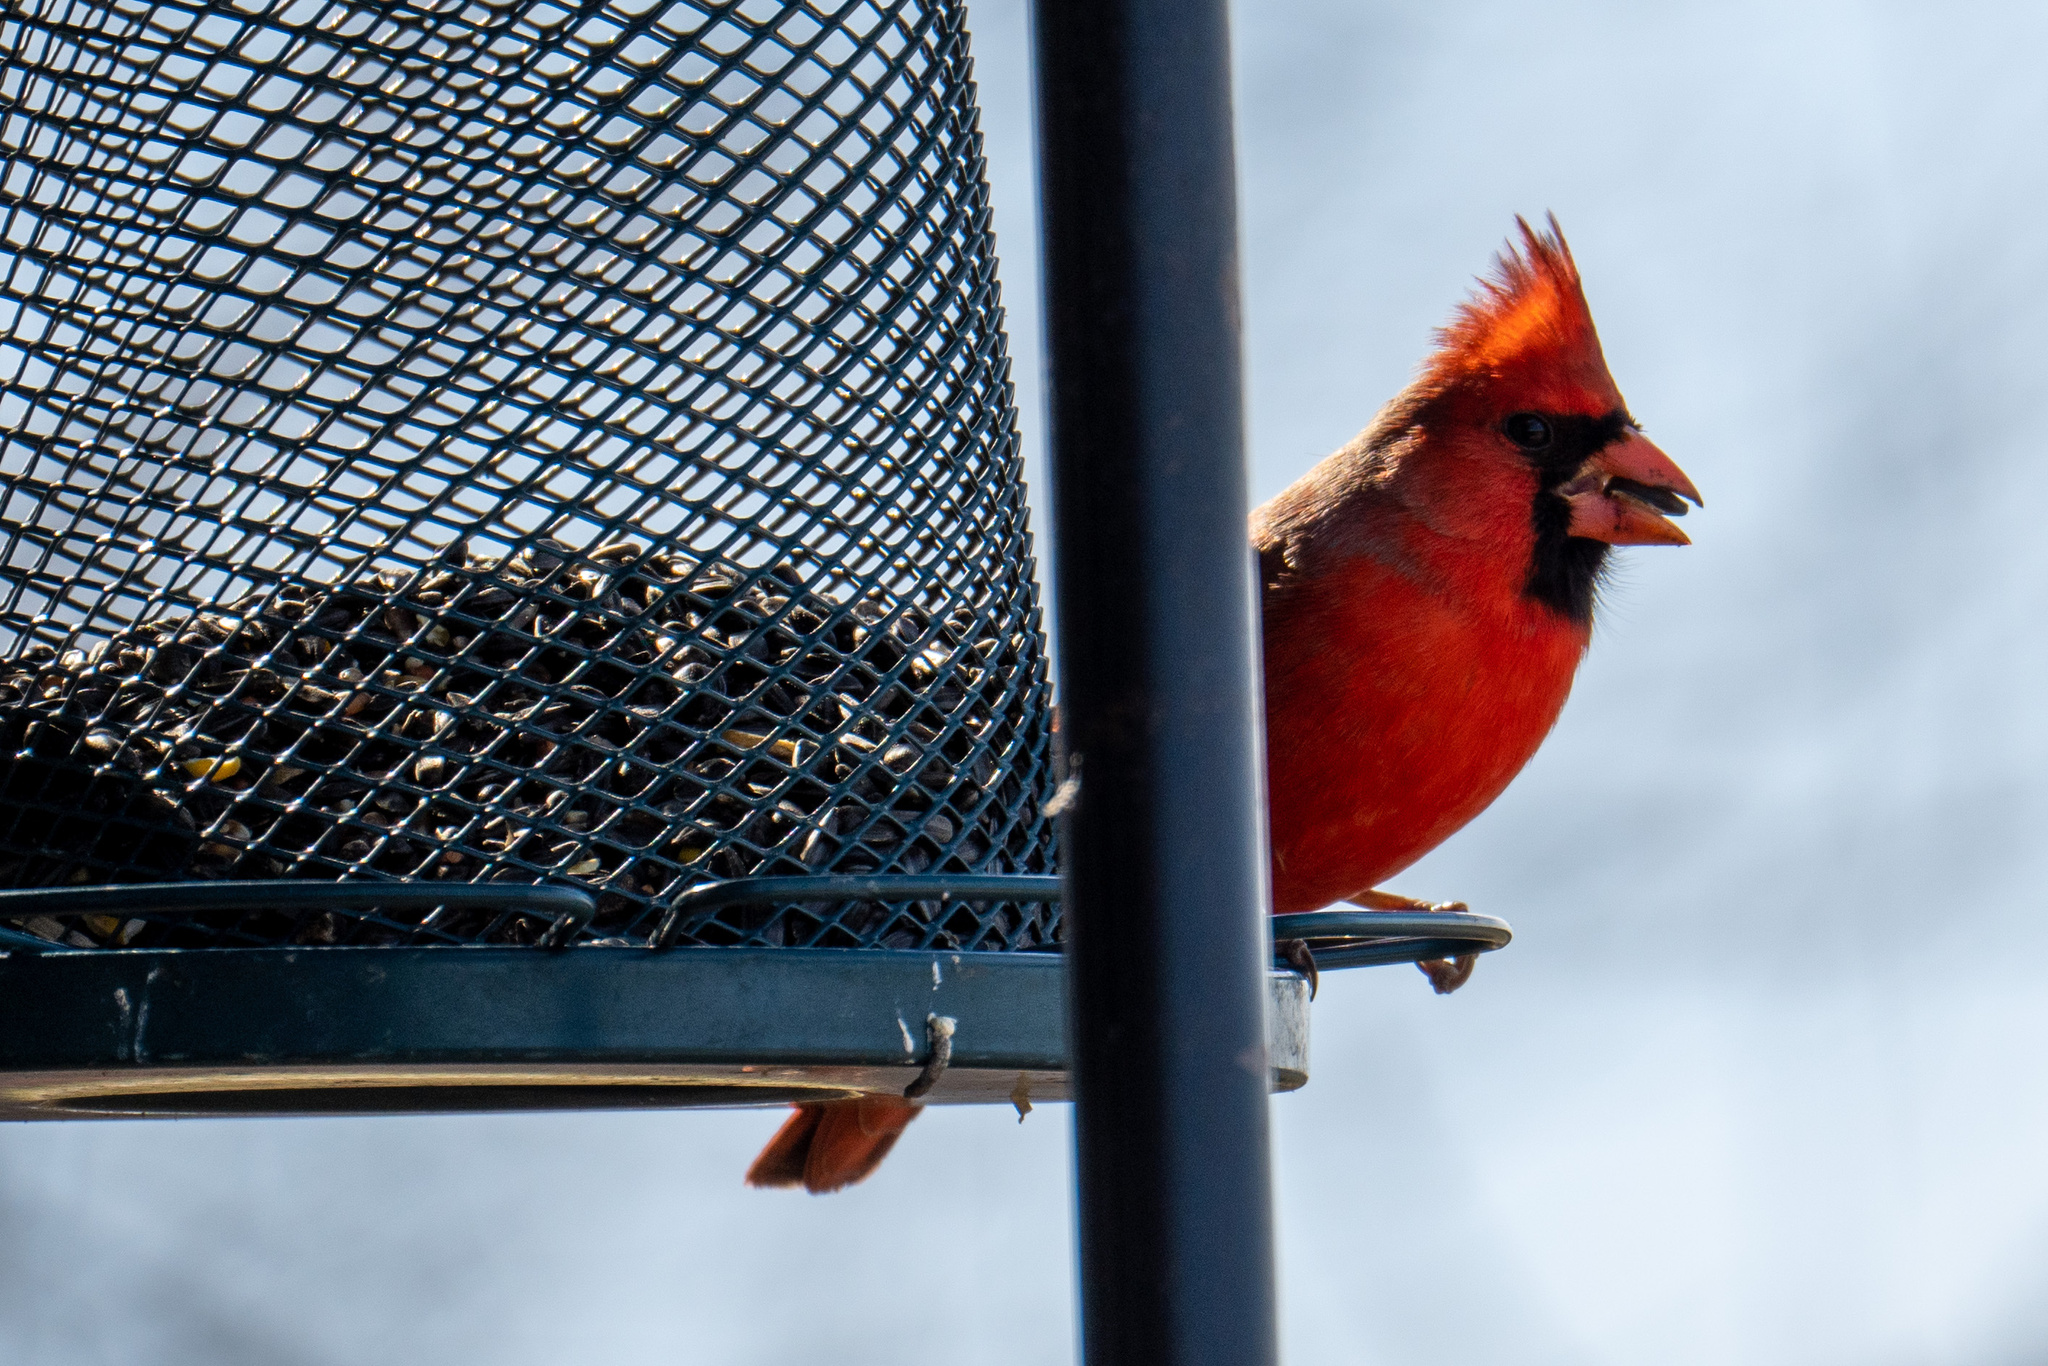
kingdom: Animalia
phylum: Chordata
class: Aves
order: Passeriformes
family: Cardinalidae
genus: Cardinalis
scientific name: Cardinalis cardinalis
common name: Northern cardinal
